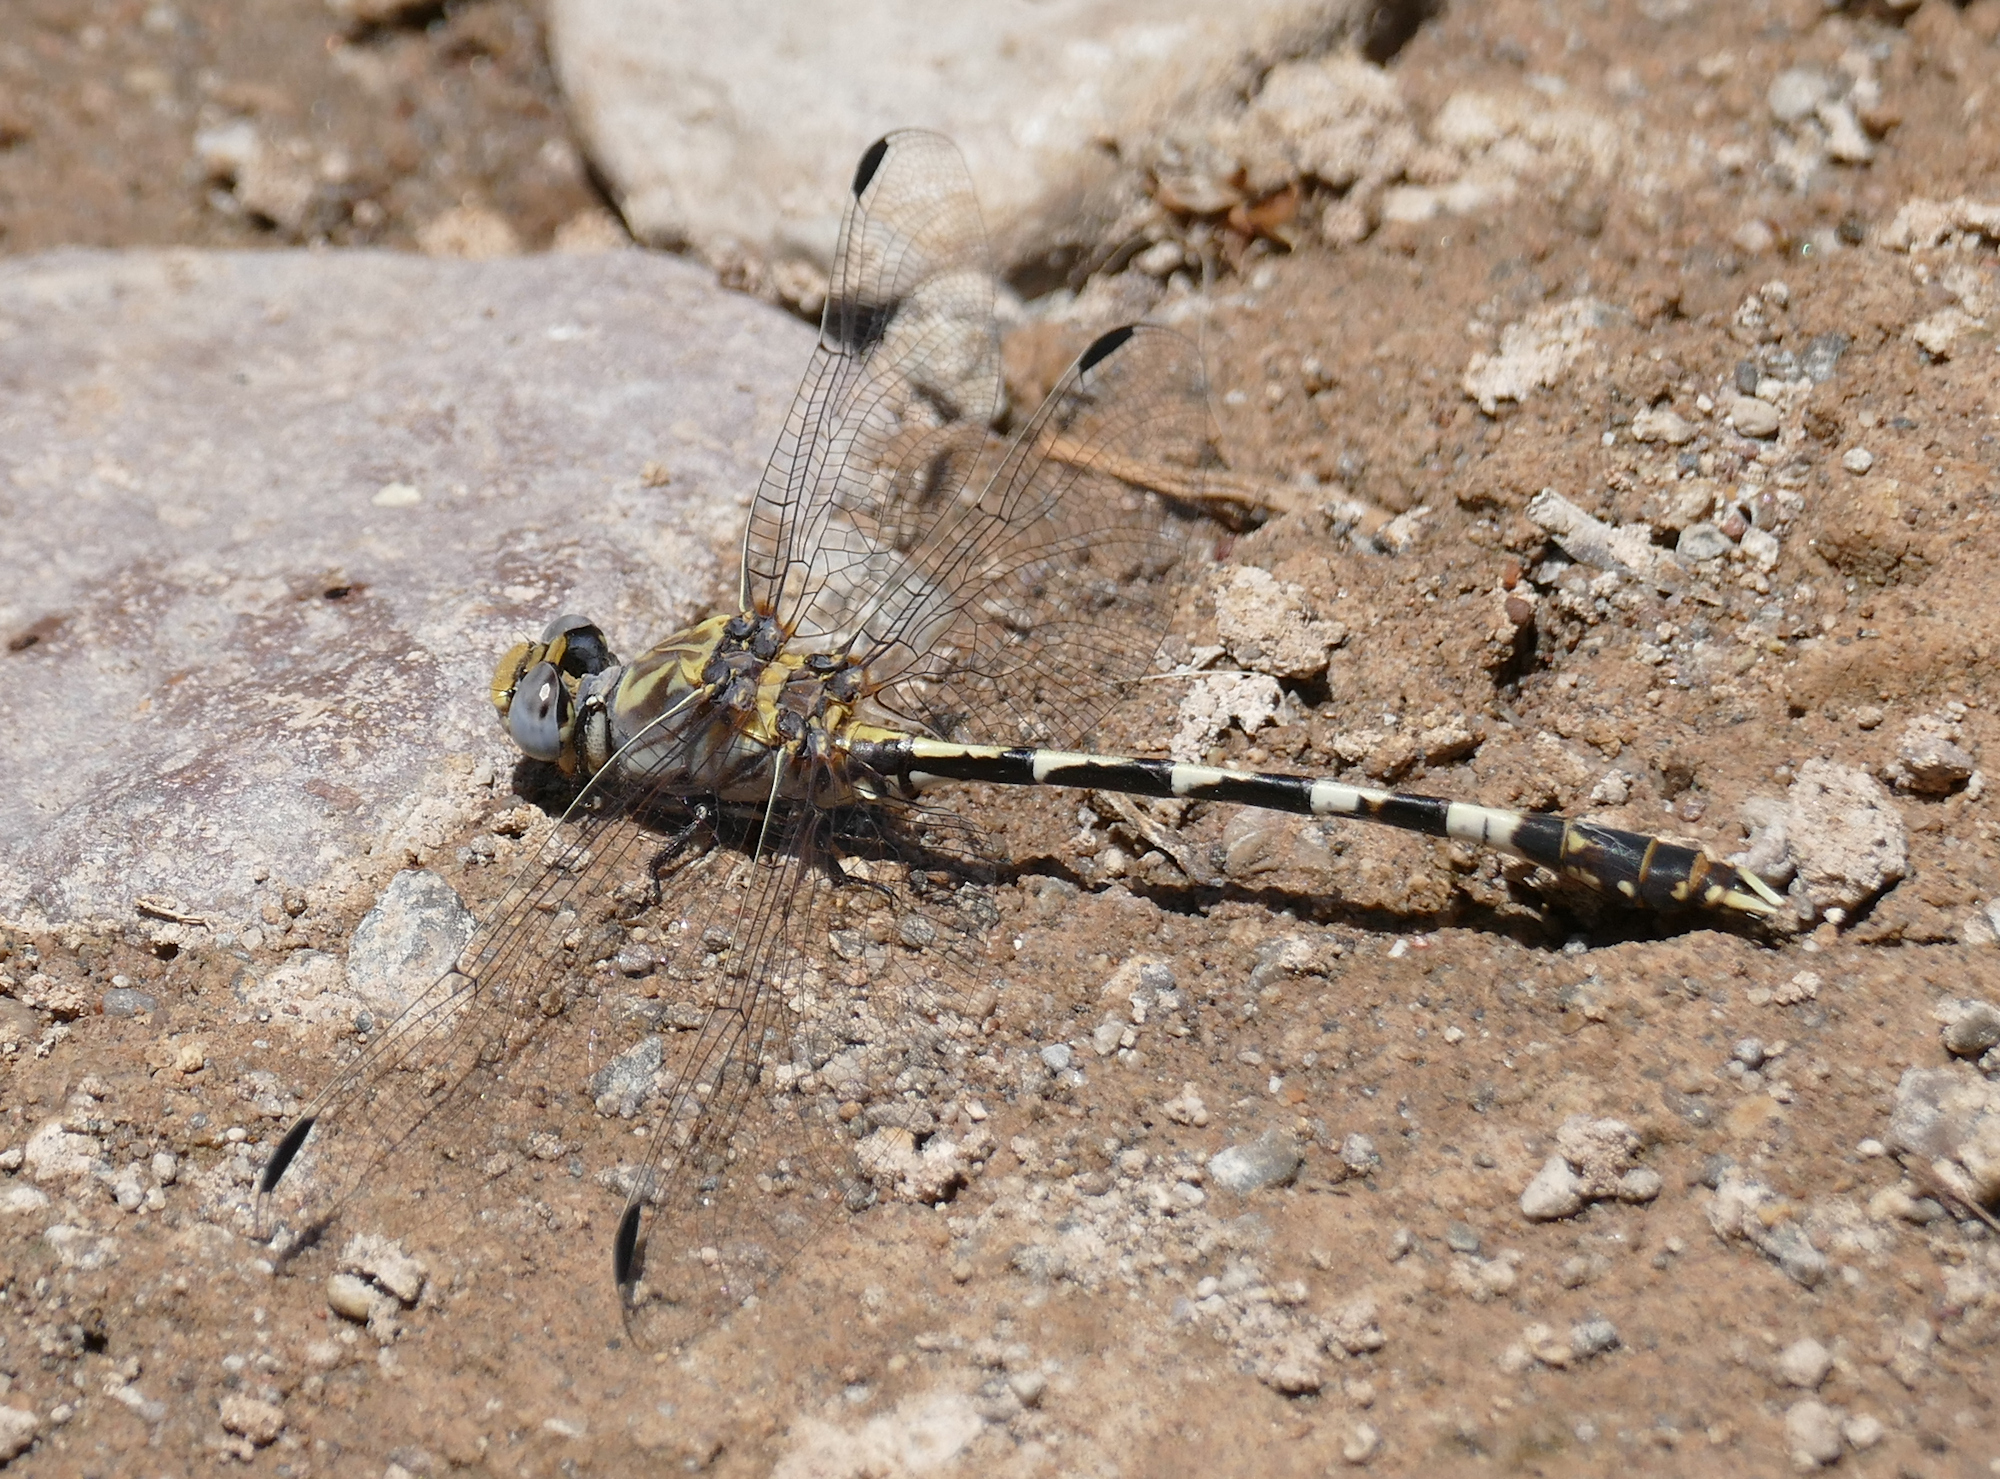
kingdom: Animalia
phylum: Arthropoda
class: Insecta
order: Odonata
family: Gomphidae
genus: Progomphus
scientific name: Progomphus borealis
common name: Gray sanddragon
